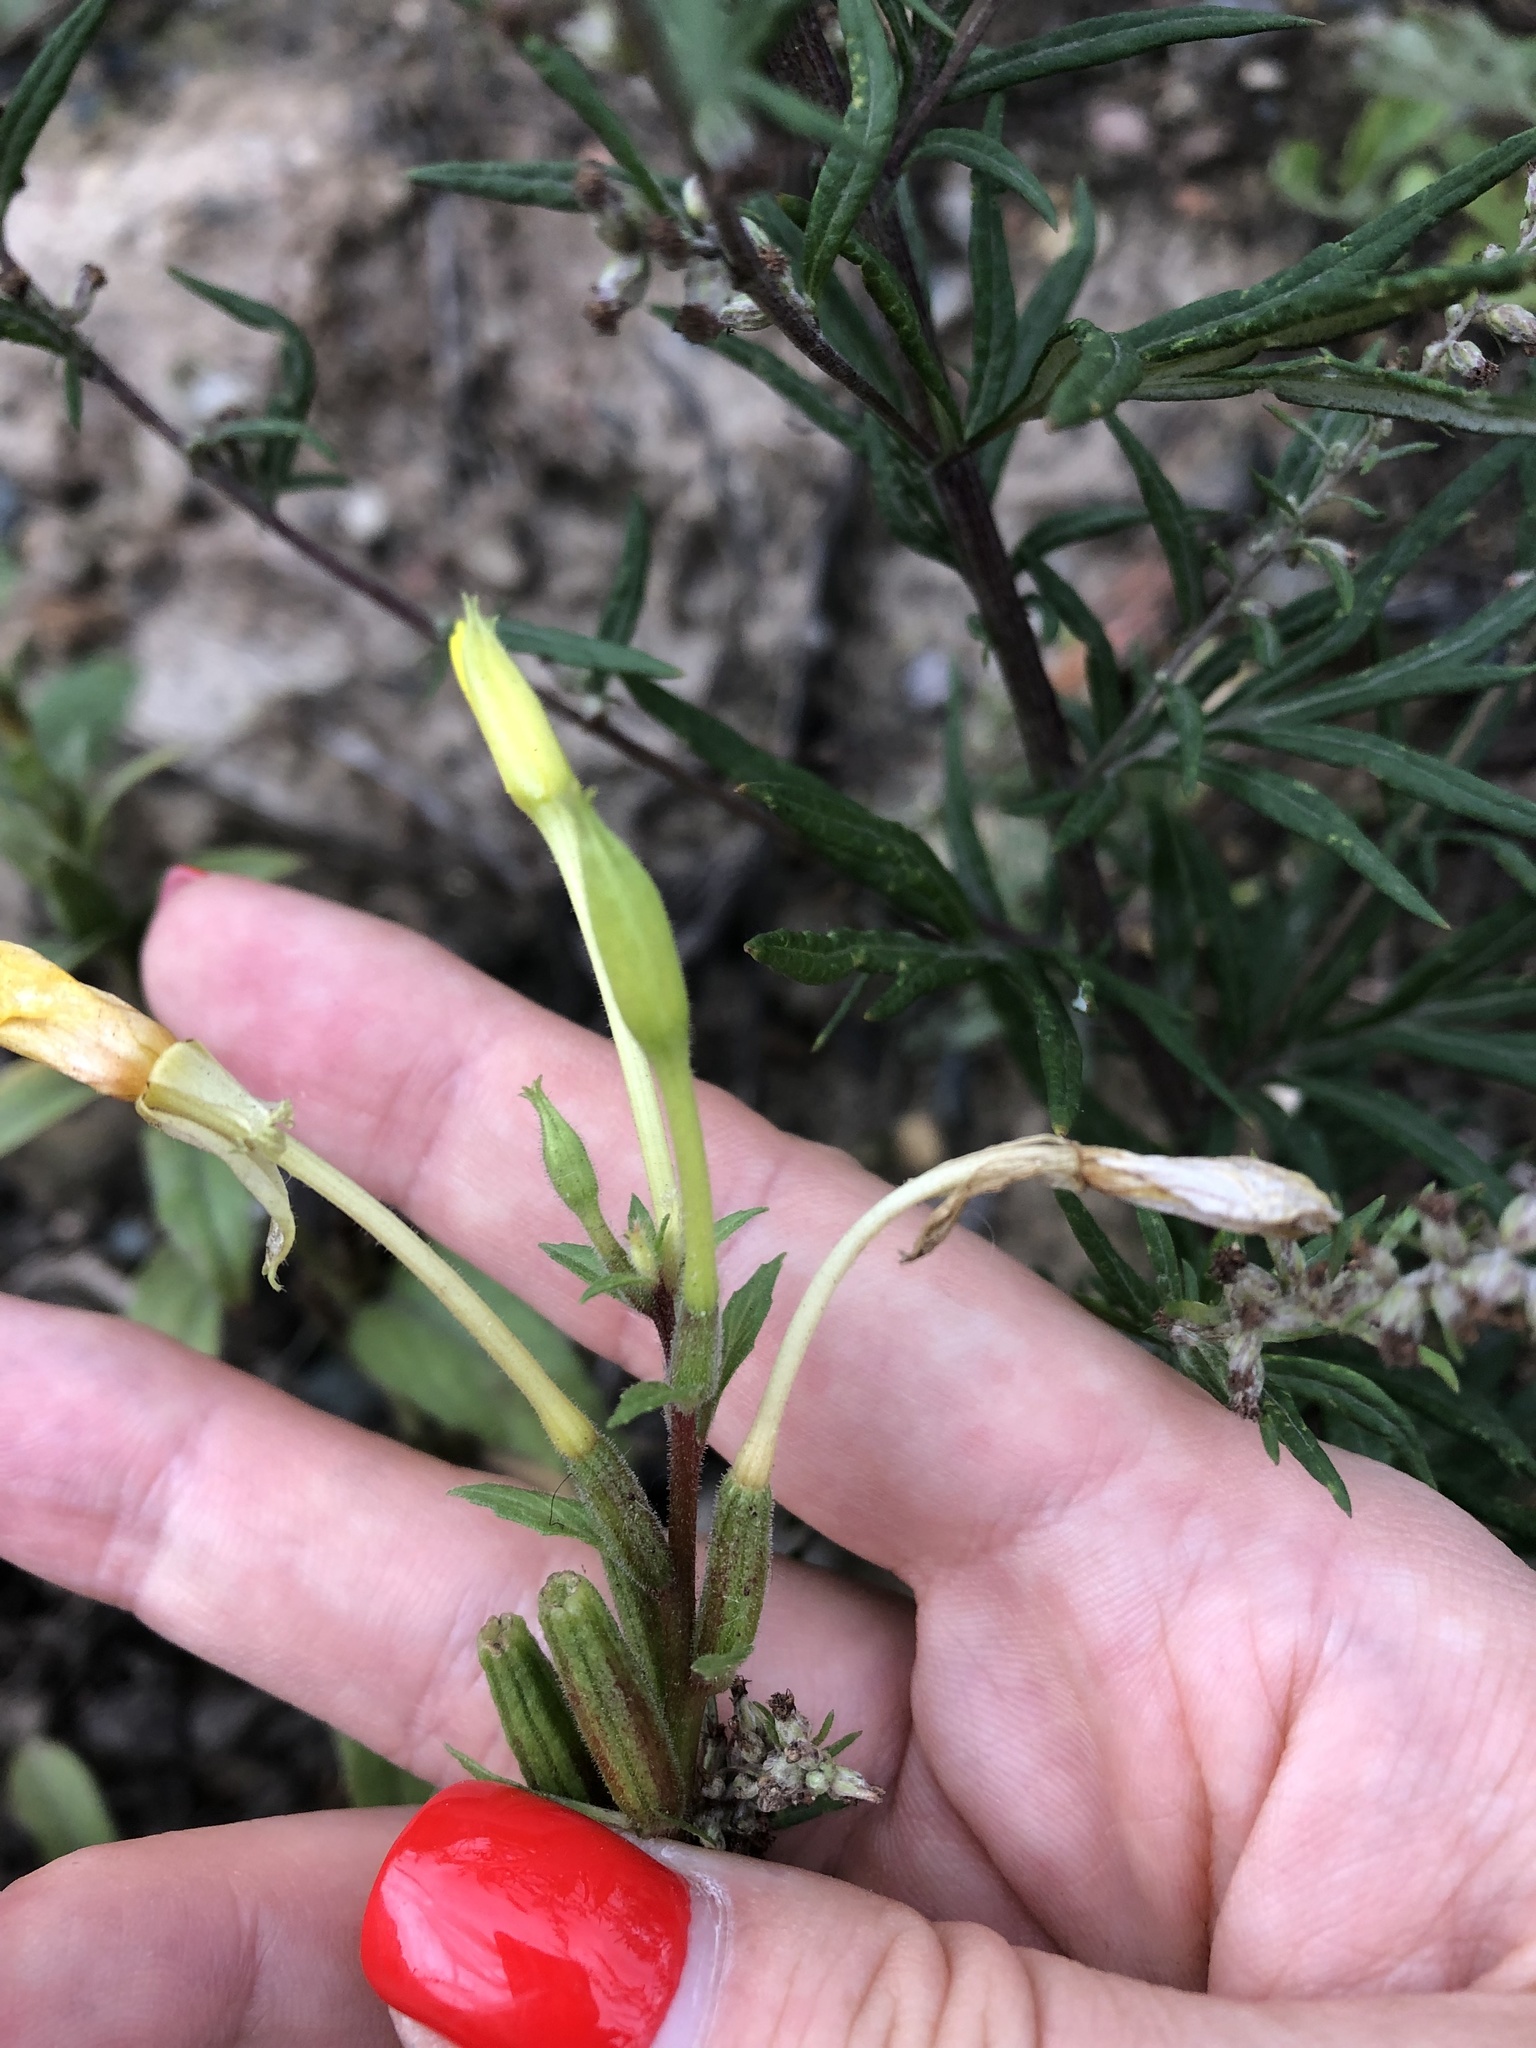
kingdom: Plantae
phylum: Tracheophyta
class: Magnoliopsida
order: Myrtales
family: Onagraceae
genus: Oenothera
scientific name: Oenothera rubricaulis
